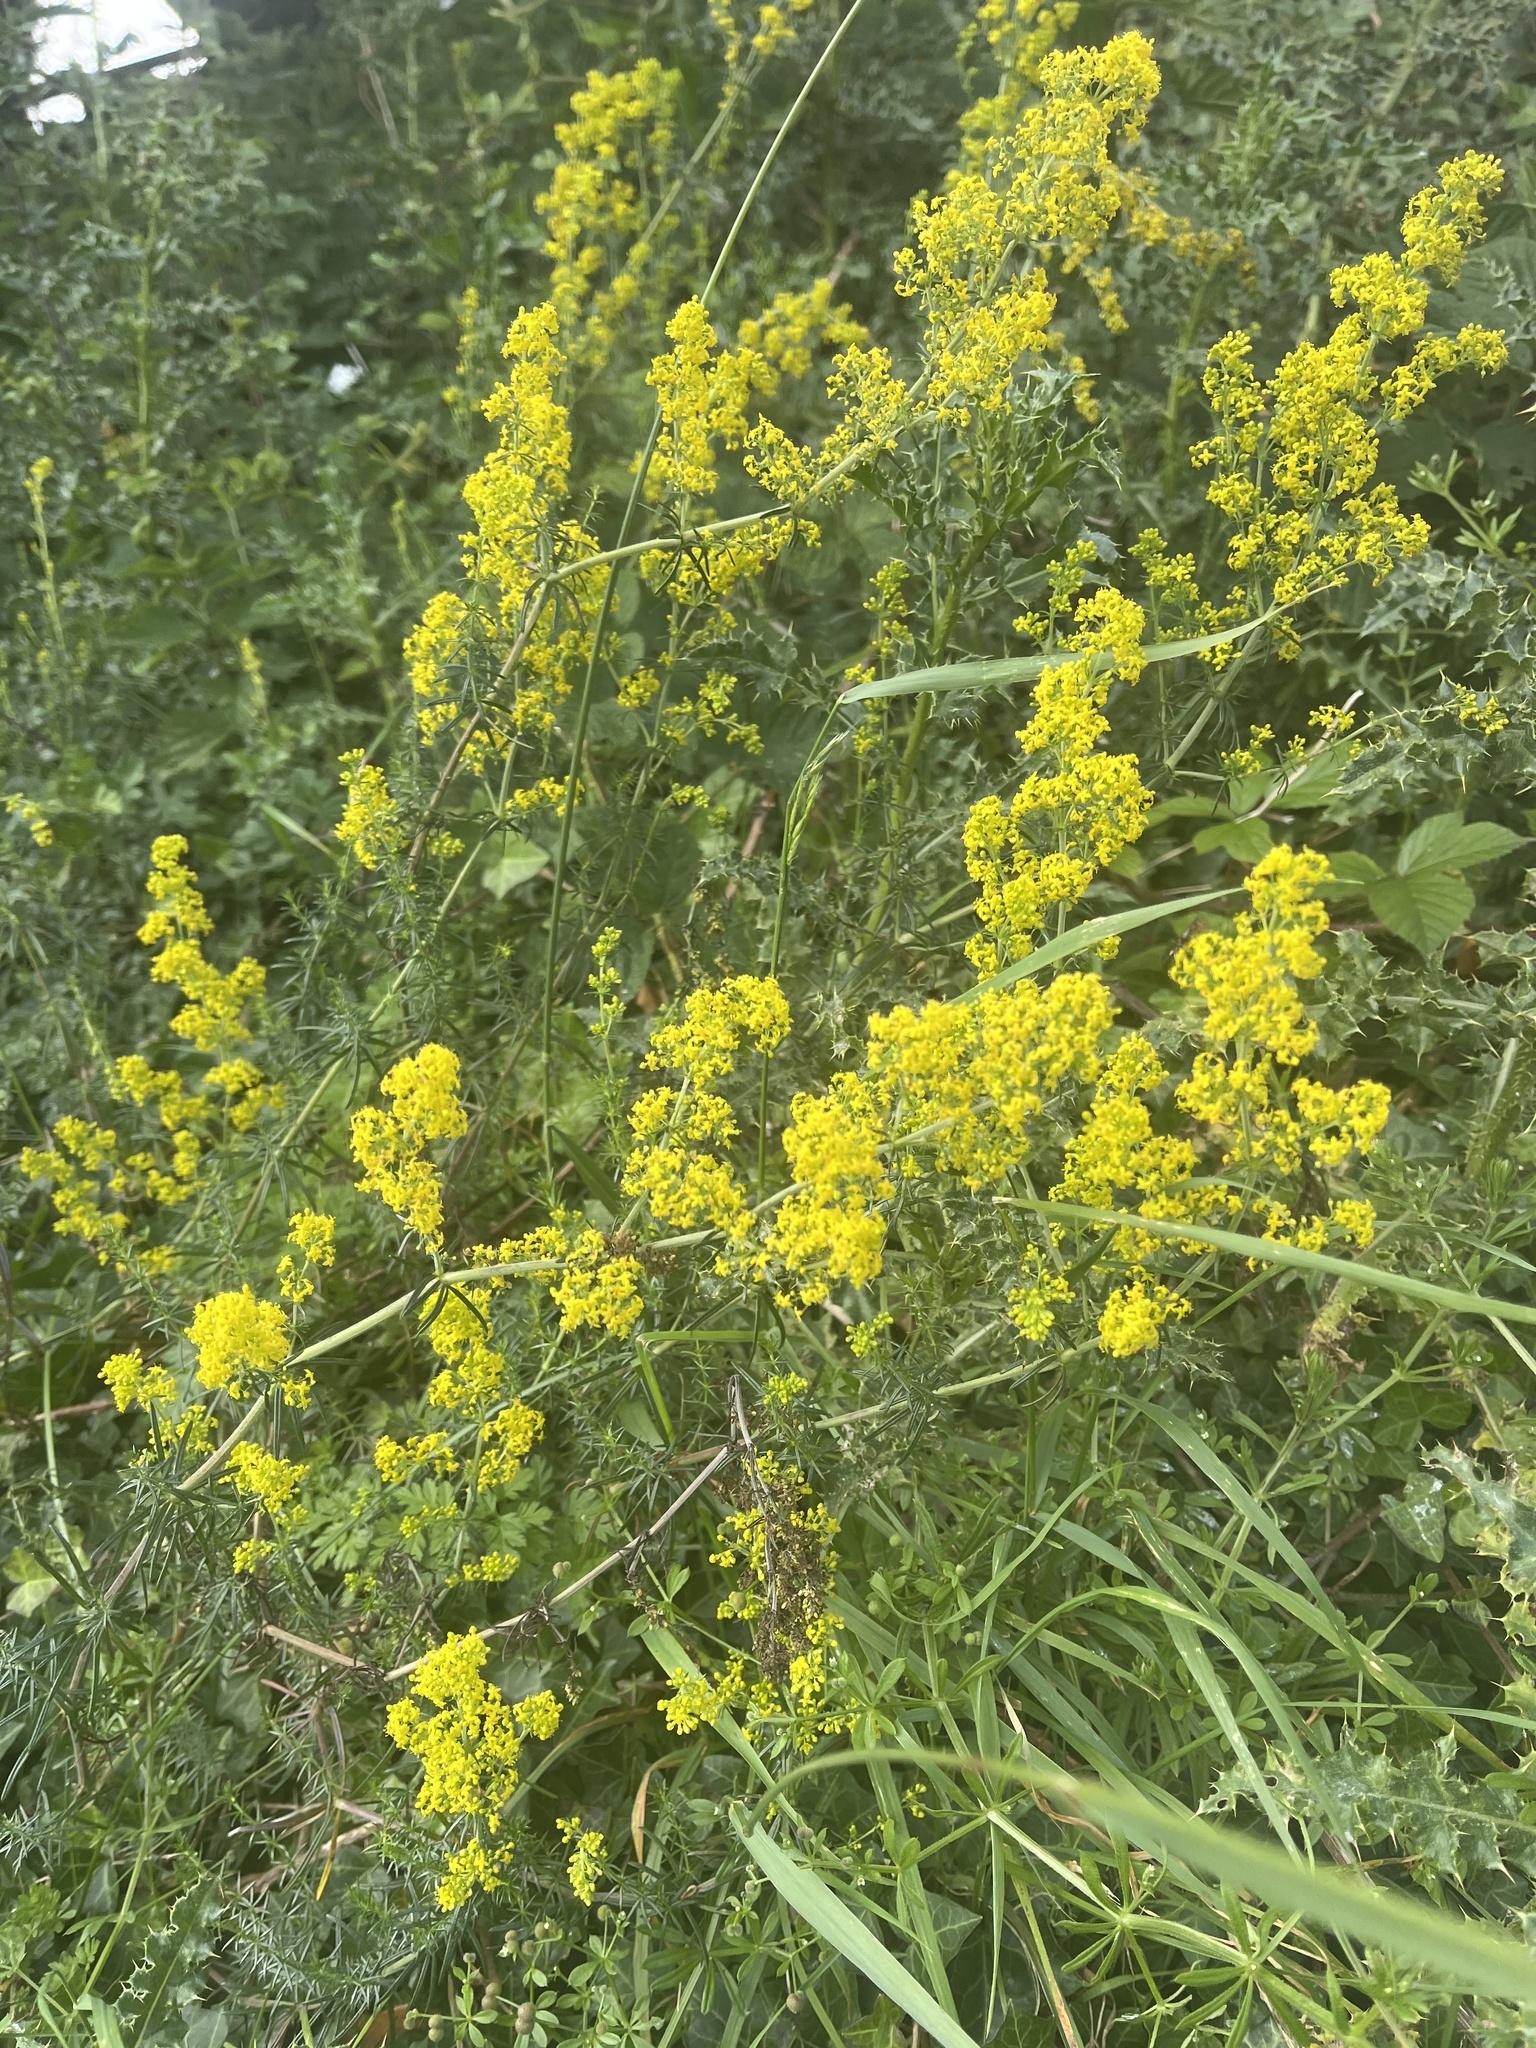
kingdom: Plantae
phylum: Tracheophyta
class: Magnoliopsida
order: Gentianales
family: Rubiaceae
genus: Galium
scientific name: Galium verum
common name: Lady's bedstraw
